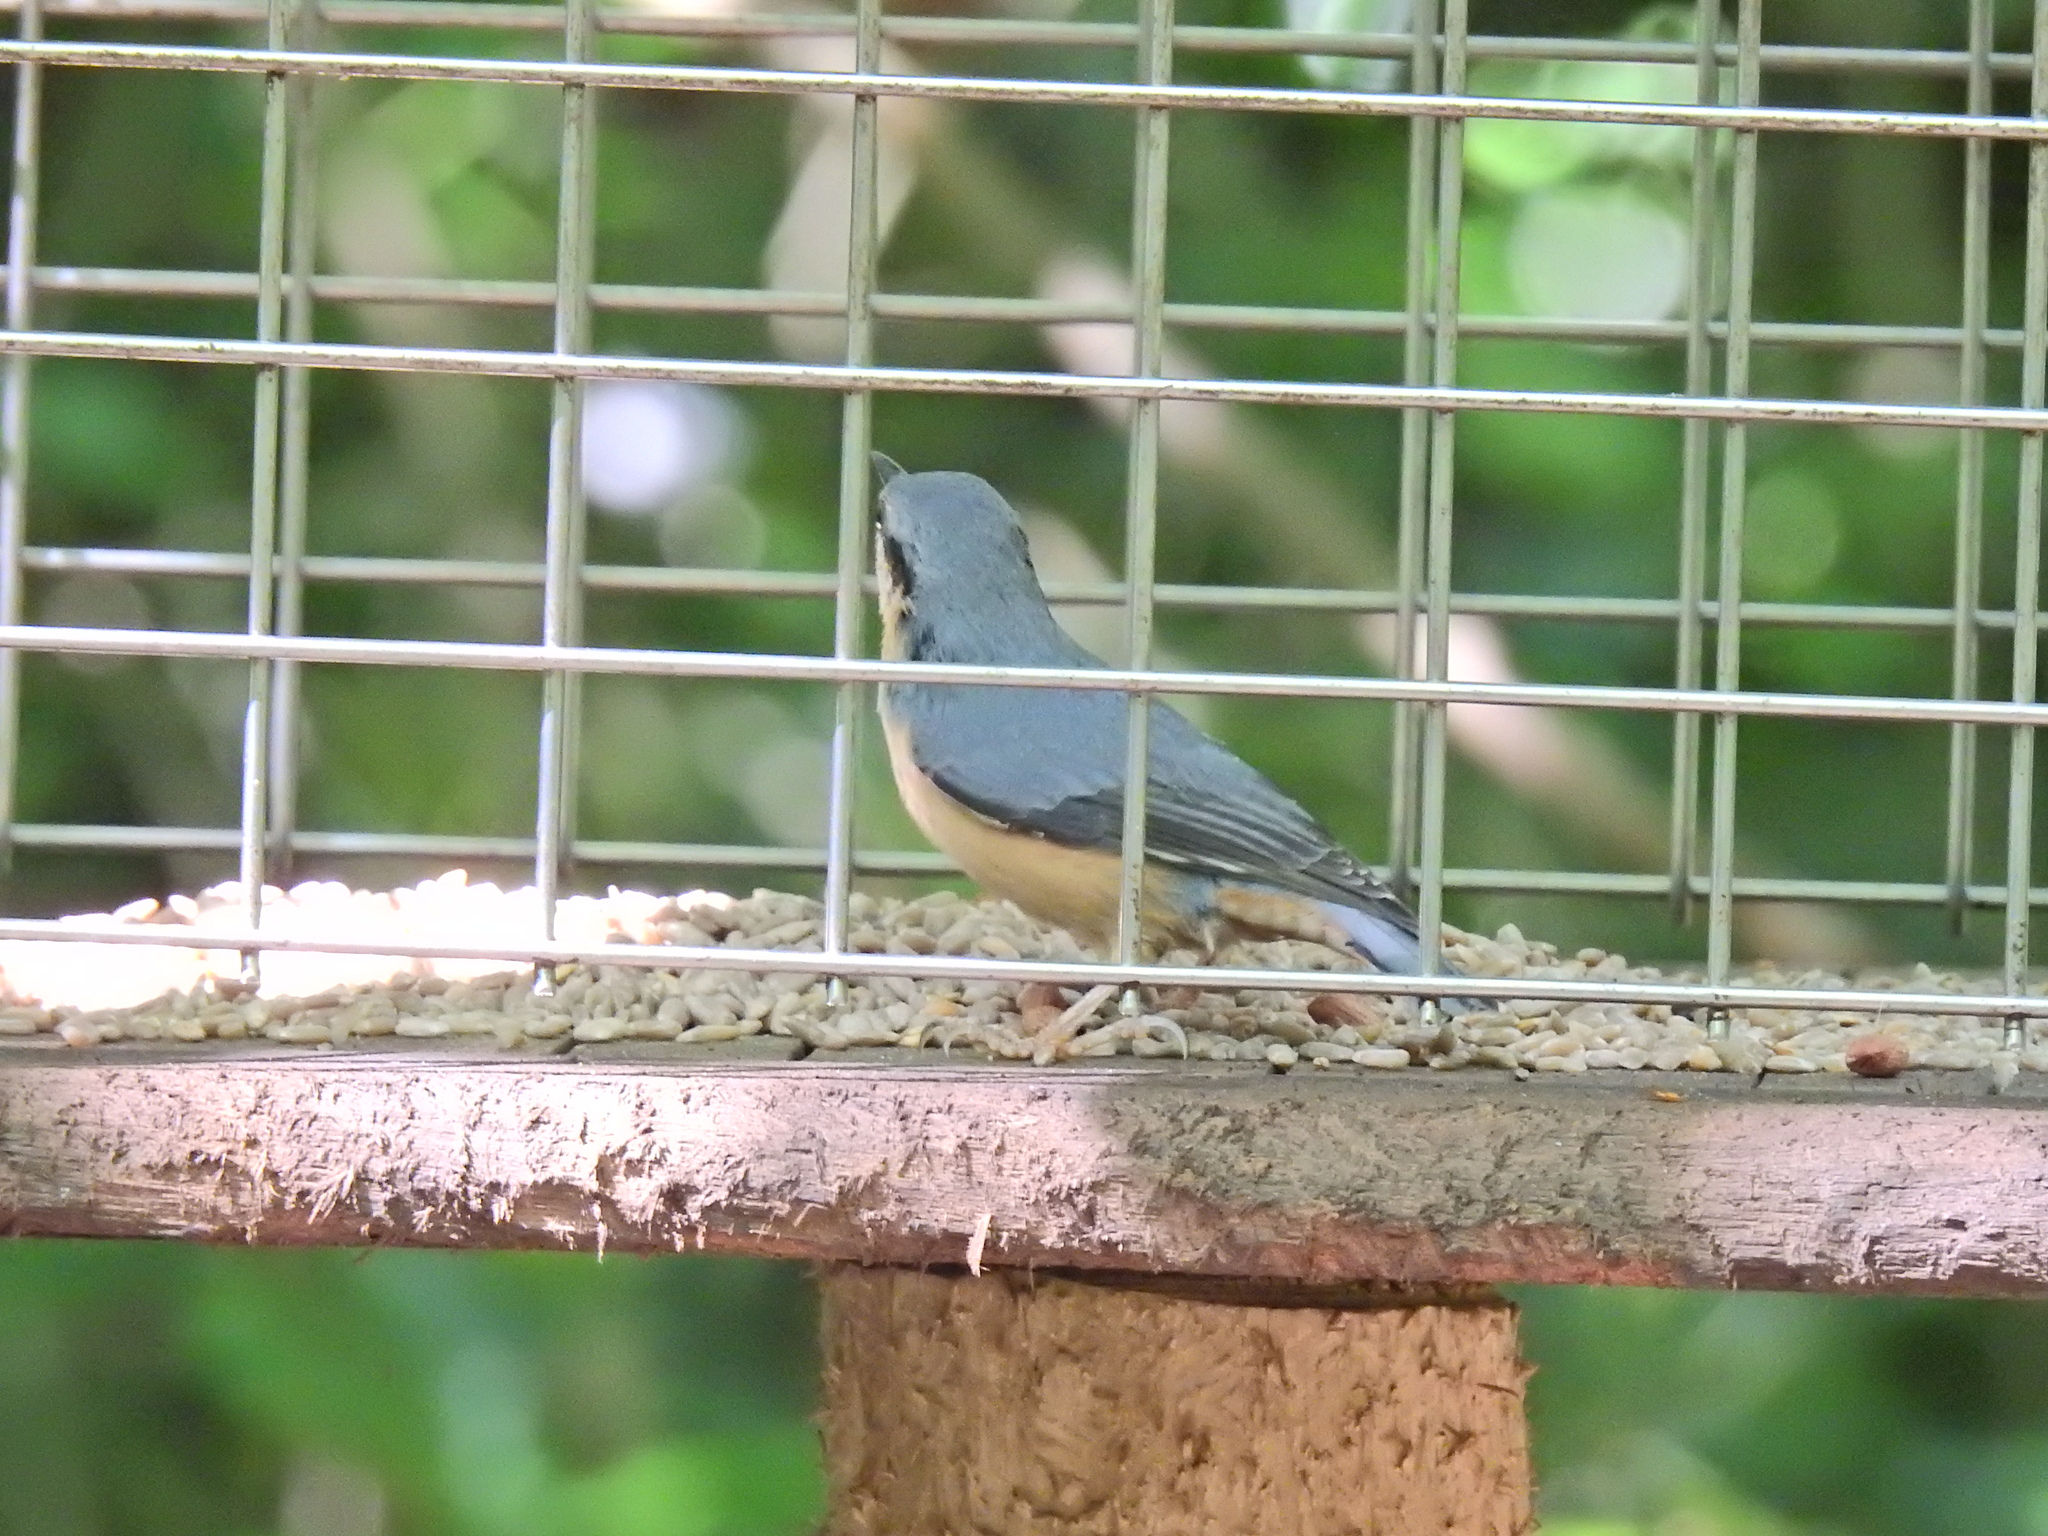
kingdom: Animalia
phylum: Chordata
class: Aves
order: Passeriformes
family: Sittidae
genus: Sitta
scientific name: Sitta europaea
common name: Eurasian nuthatch
